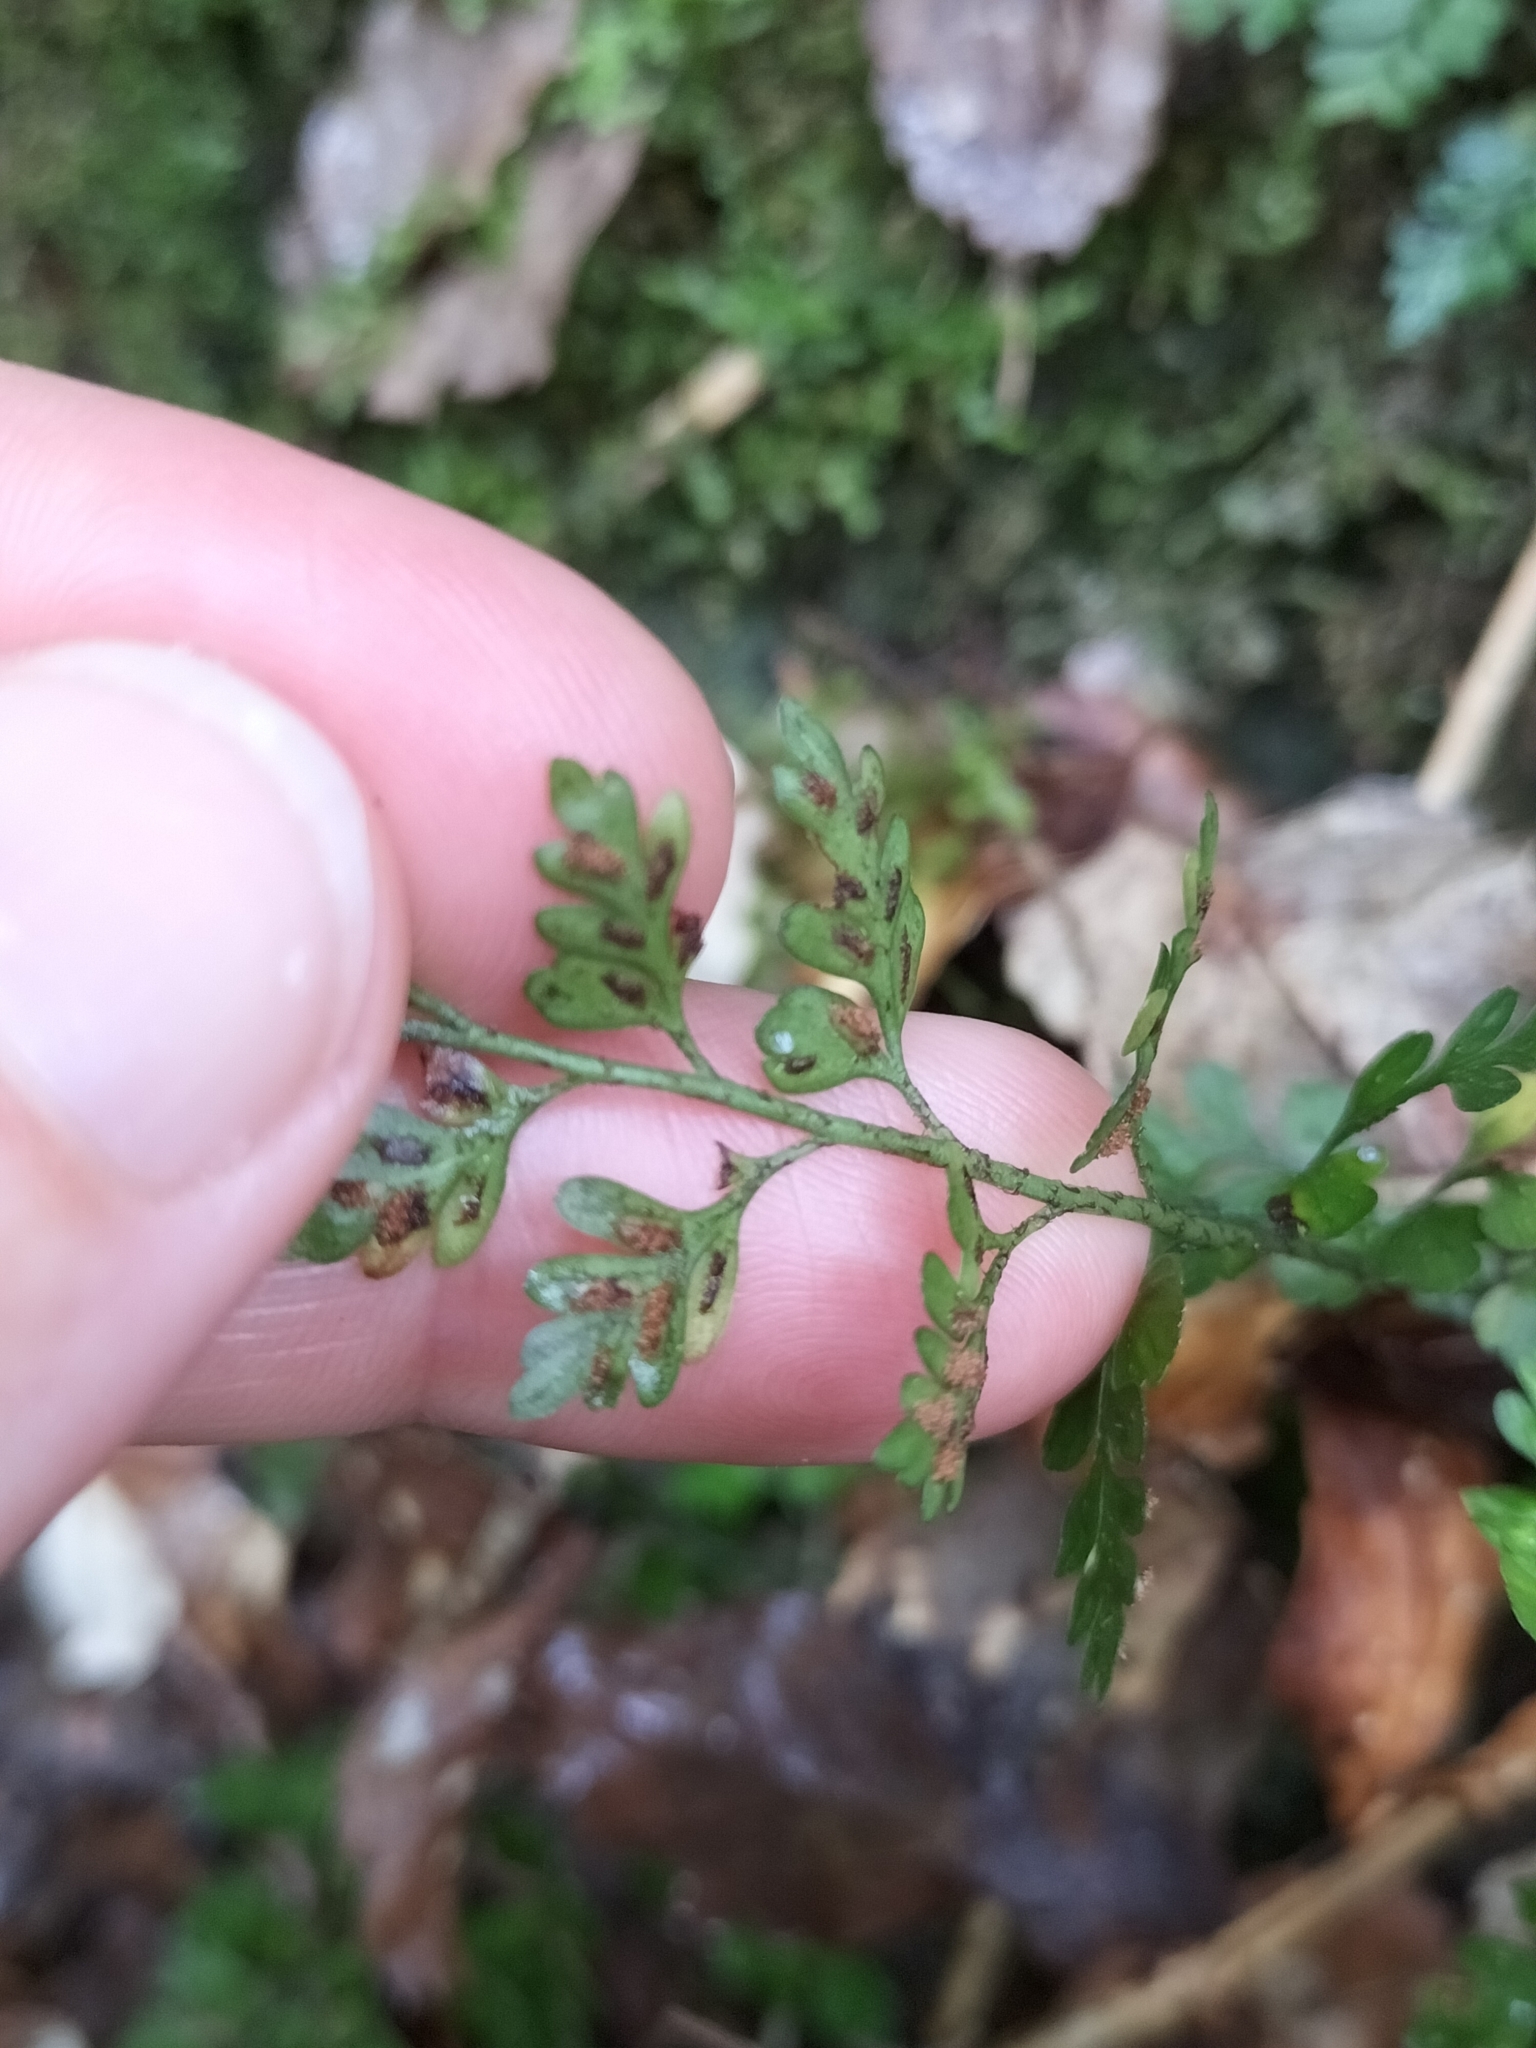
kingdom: Plantae
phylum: Tracheophyta
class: Polypodiopsida
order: Polypodiales
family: Aspleniaceae
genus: Asplenium
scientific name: Asplenium hookerianum
